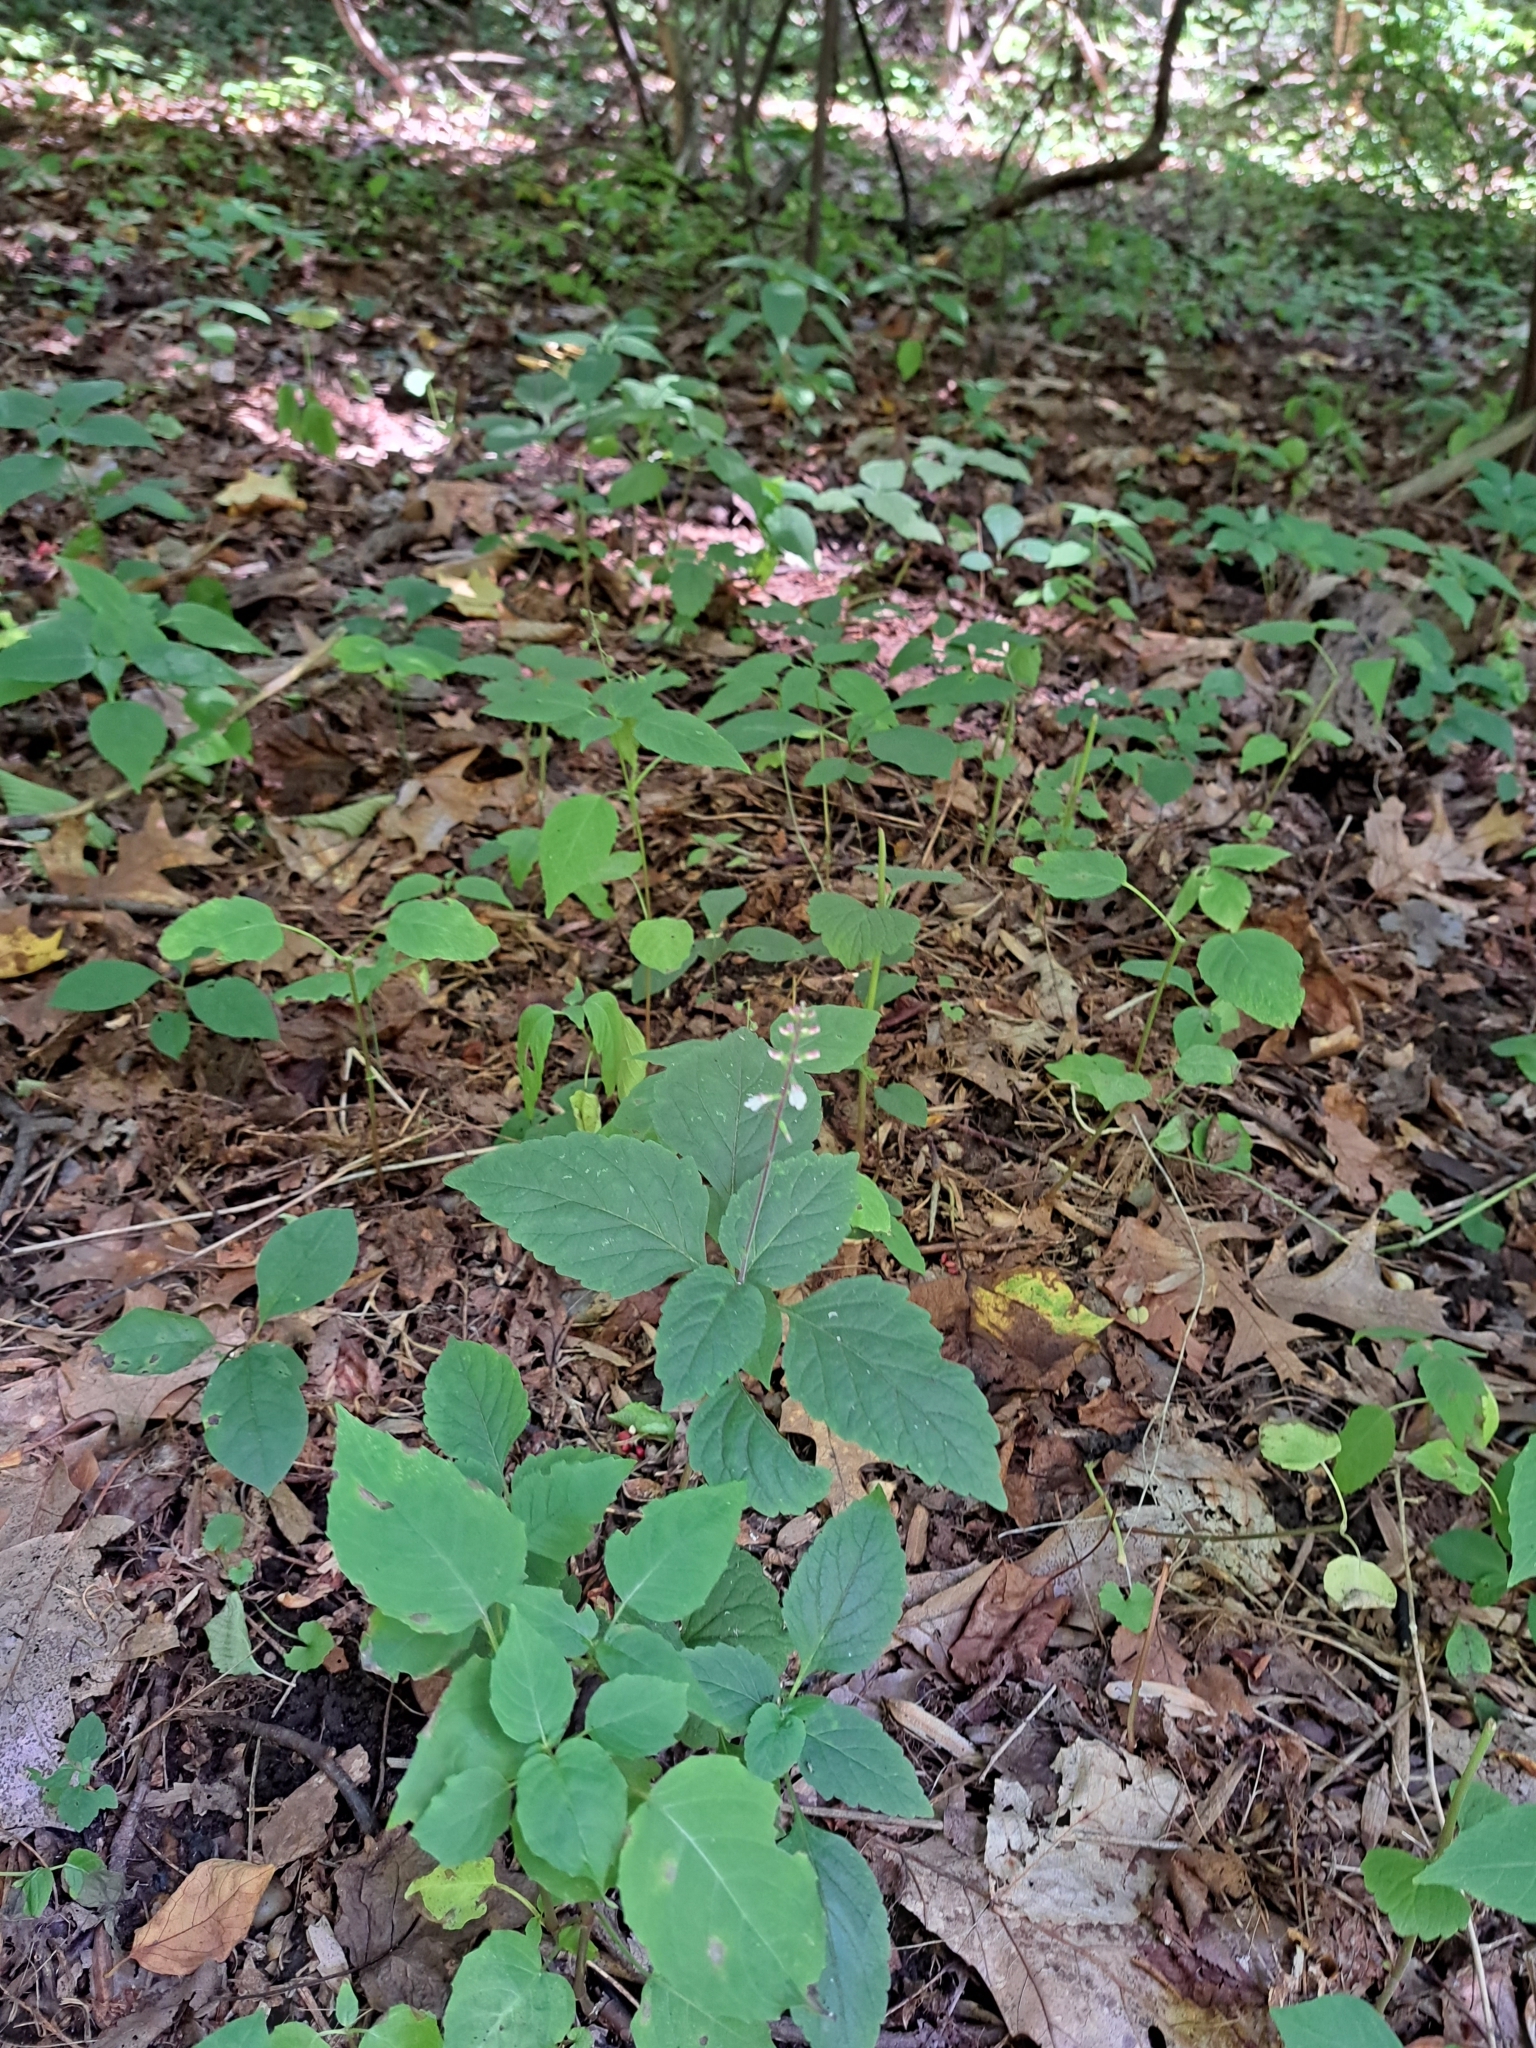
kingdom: Plantae
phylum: Tracheophyta
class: Magnoliopsida
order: Lamiales
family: Phrymaceae
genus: Phryma
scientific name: Phryma leptostachya
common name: American lopseed
